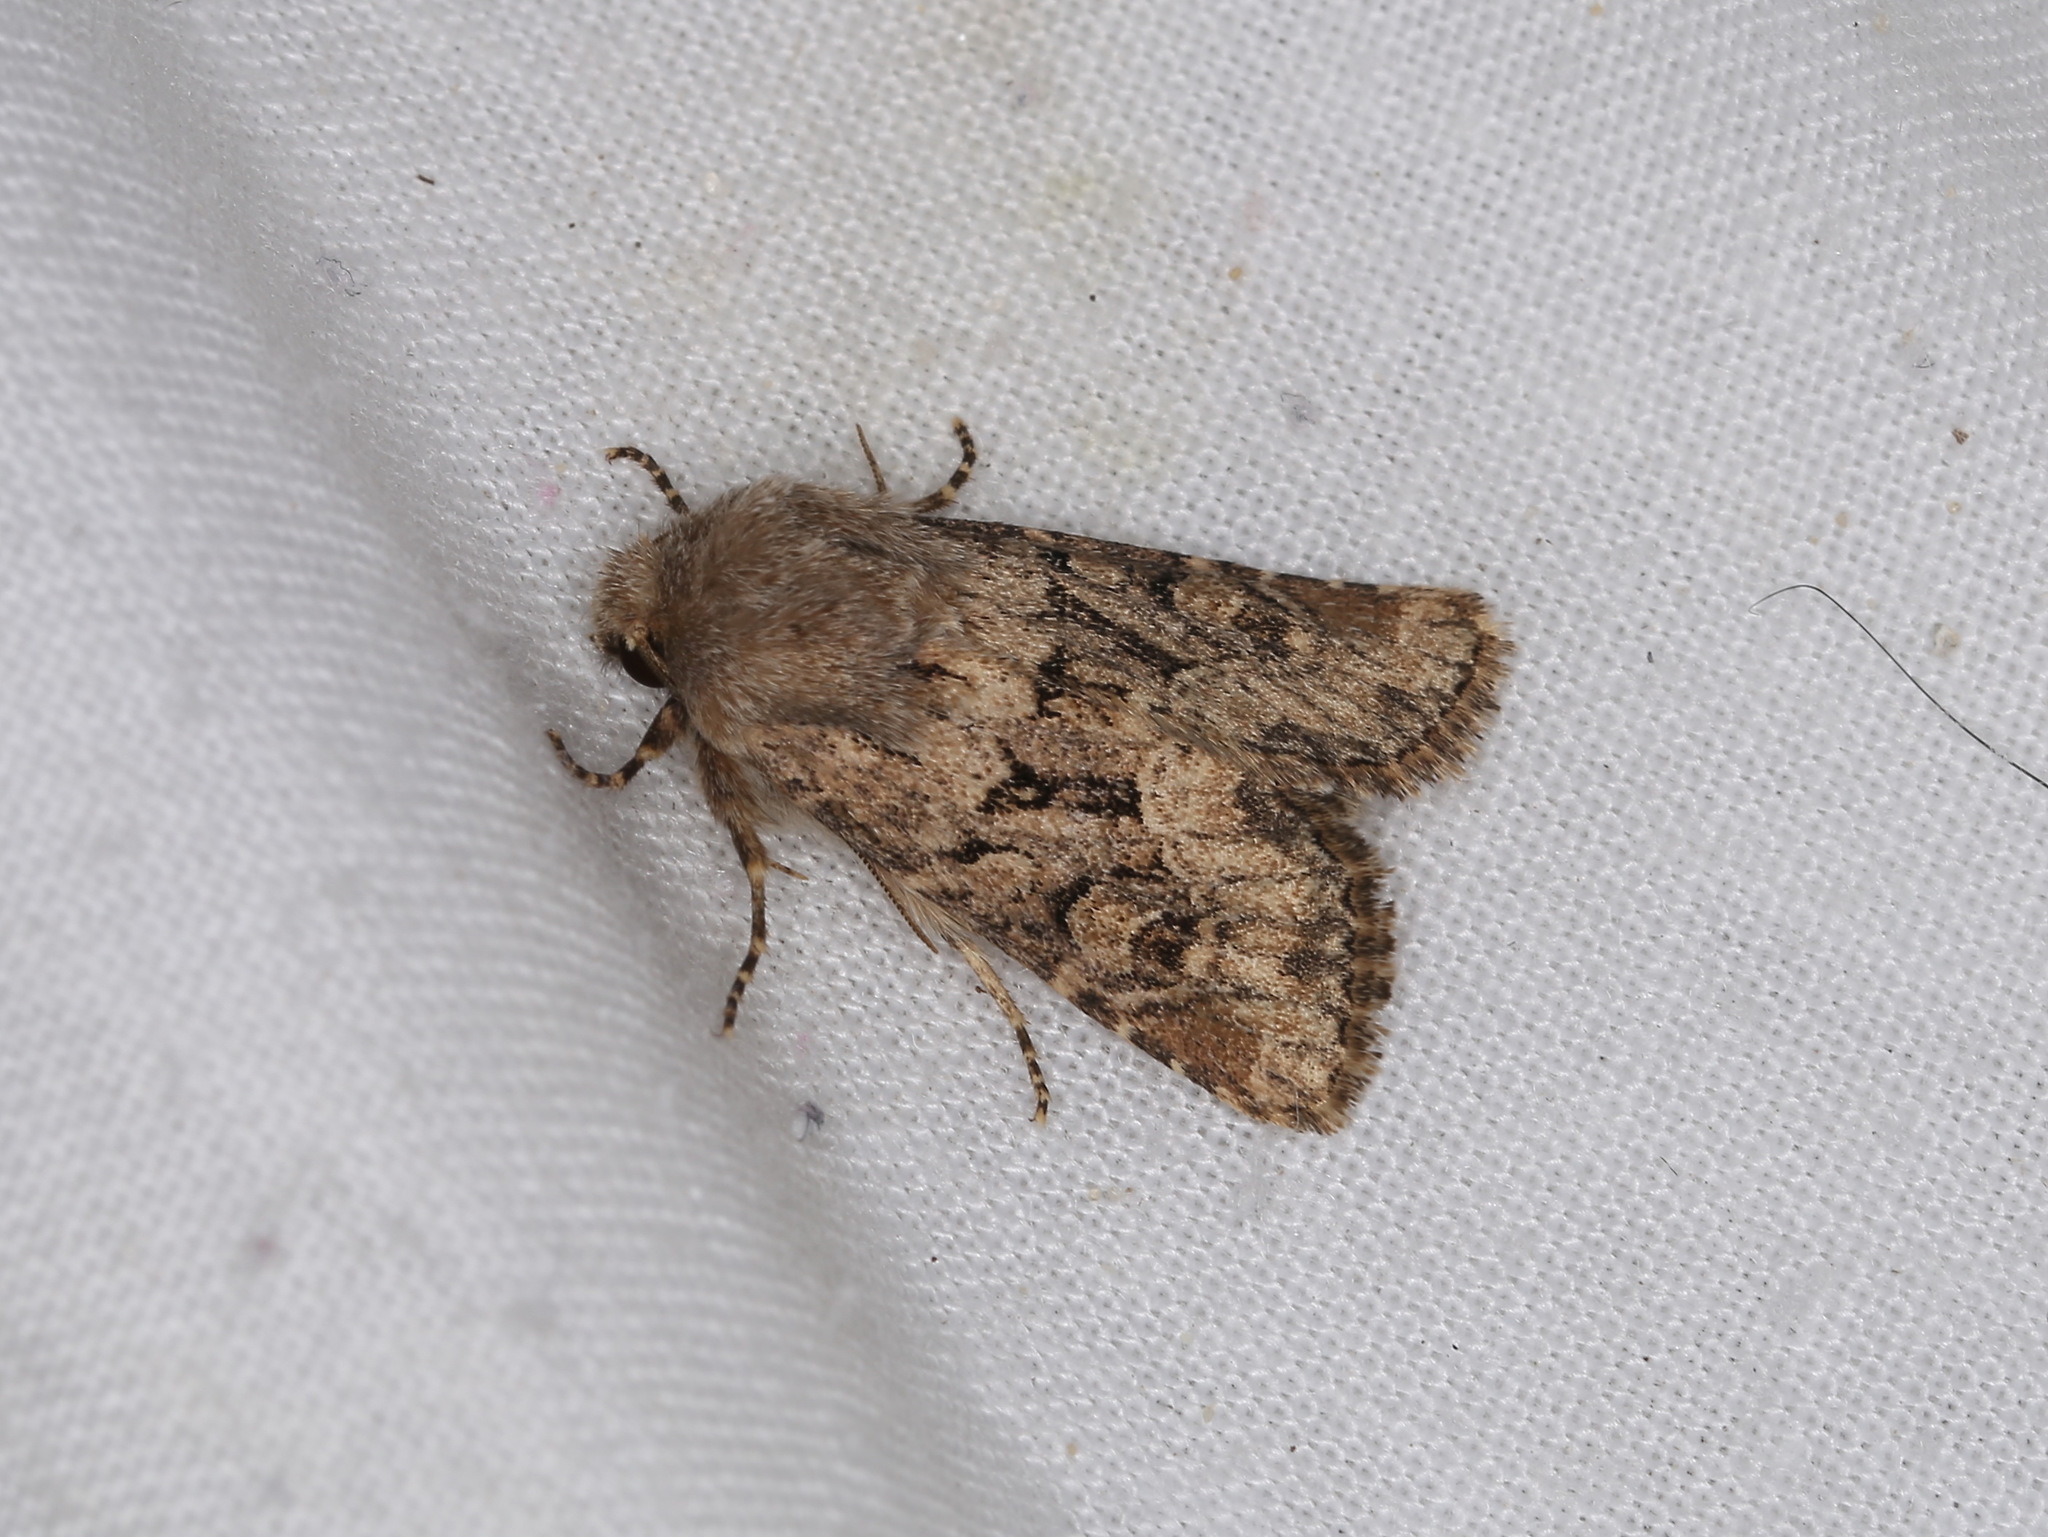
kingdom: Animalia
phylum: Arthropoda
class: Insecta
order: Lepidoptera
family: Noctuidae
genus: Luperina
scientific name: Luperina testacea
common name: Flounced rustic
